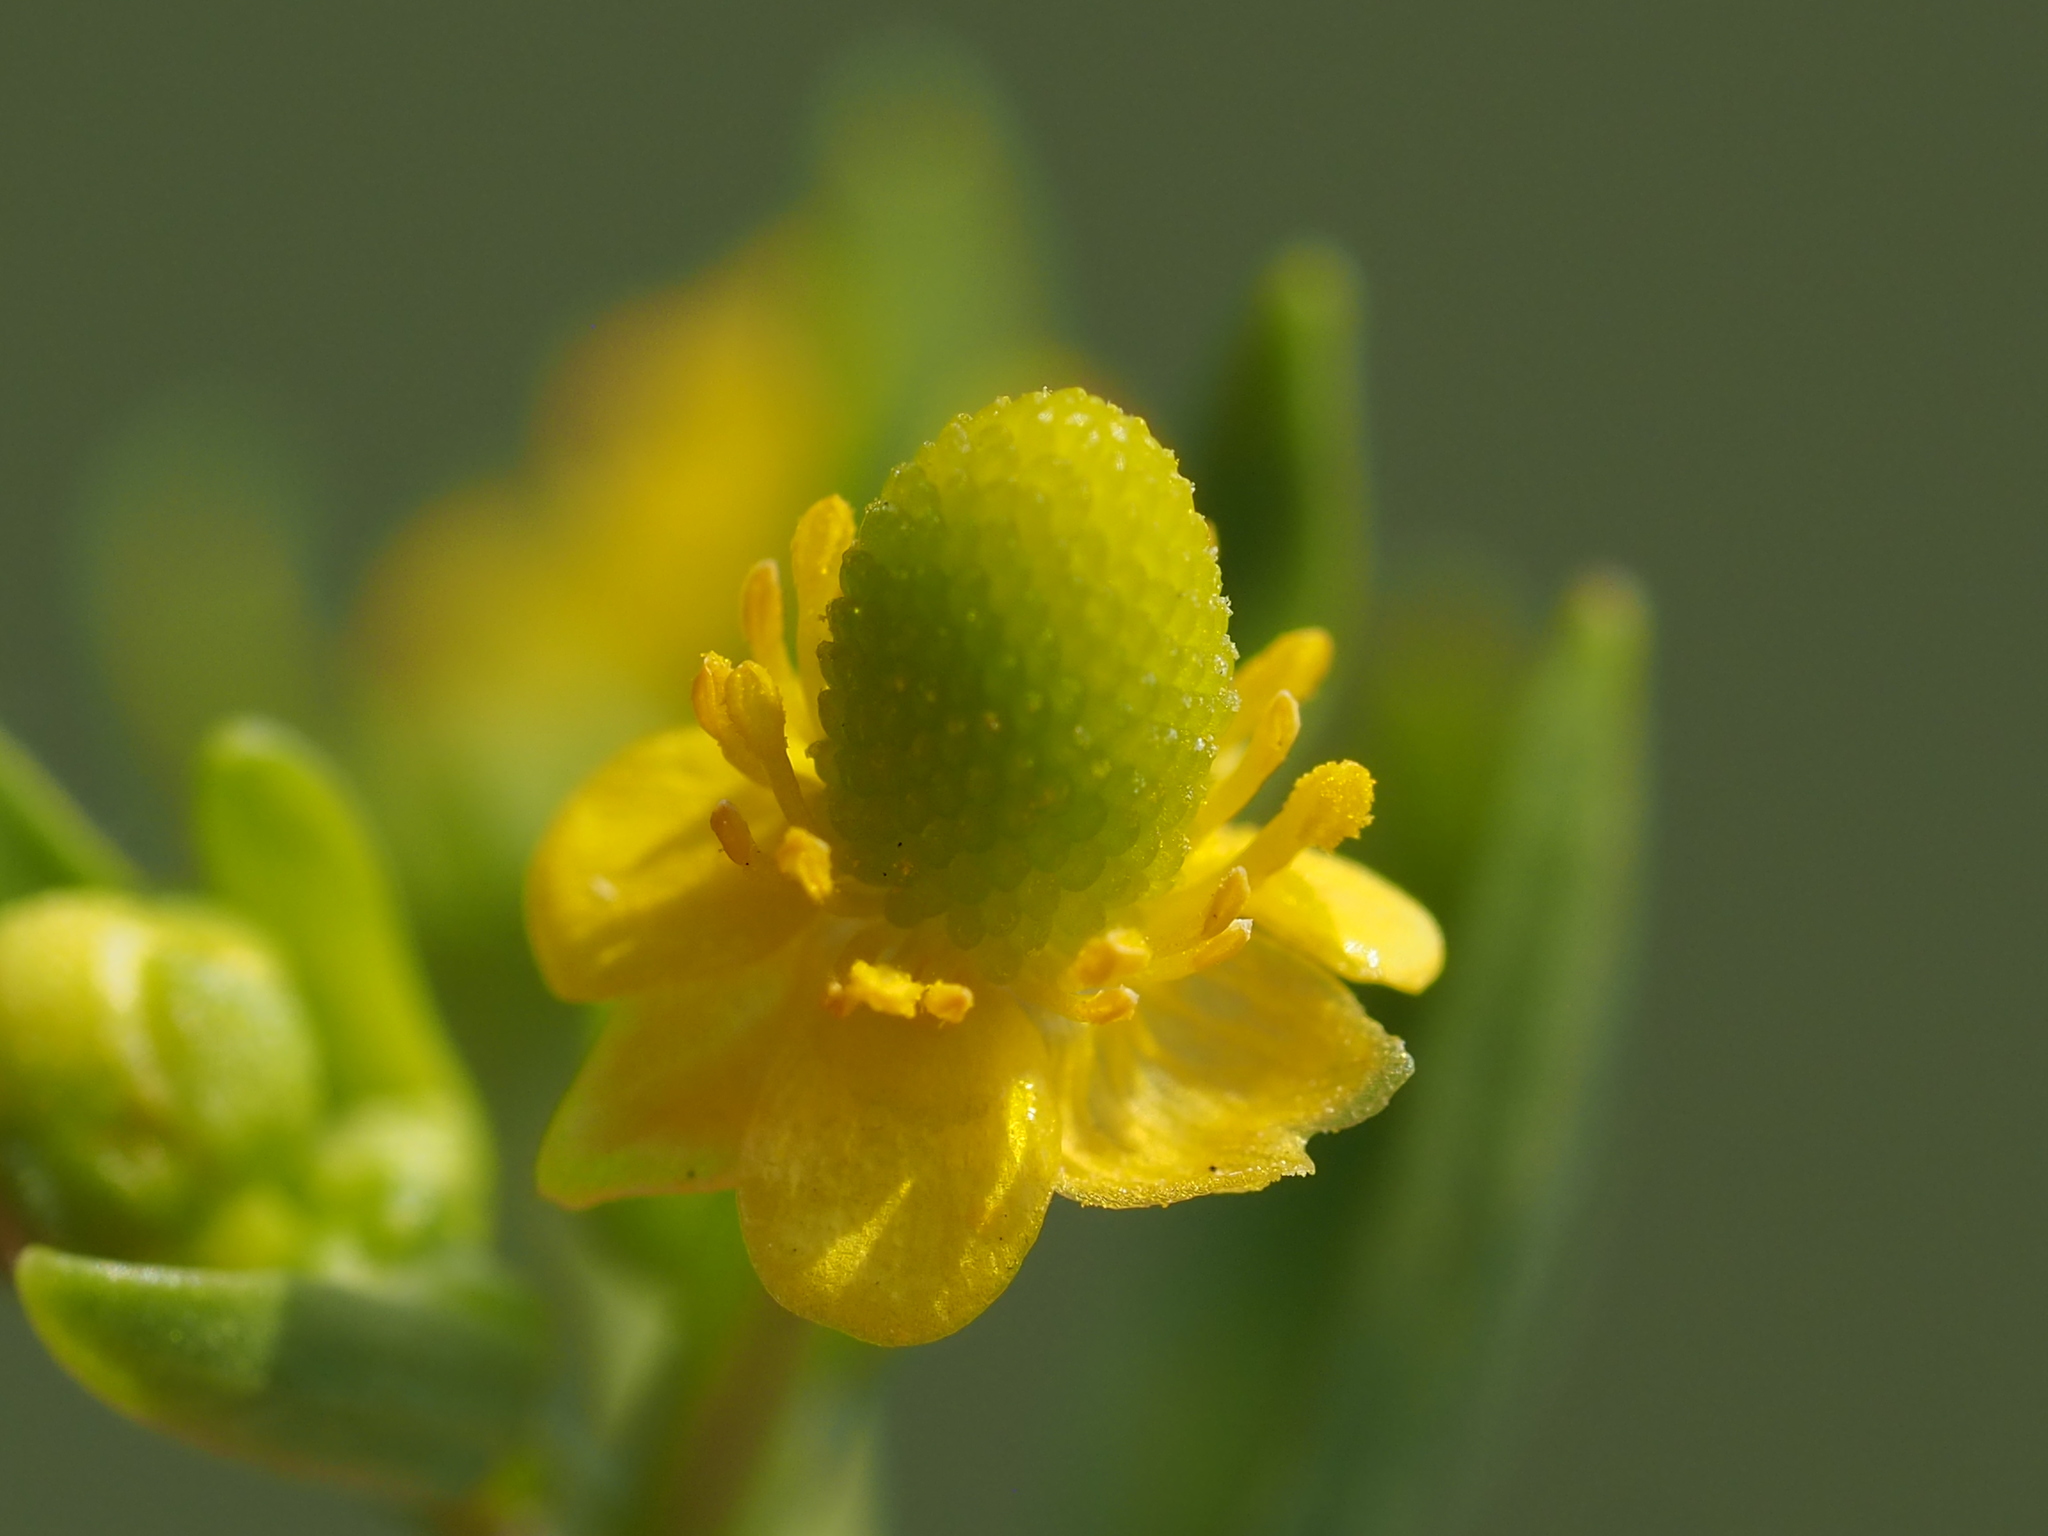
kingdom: Plantae
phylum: Tracheophyta
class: Magnoliopsida
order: Ranunculales
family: Ranunculaceae
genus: Ranunculus
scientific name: Ranunculus sceleratus
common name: Celery-leaved buttercup
